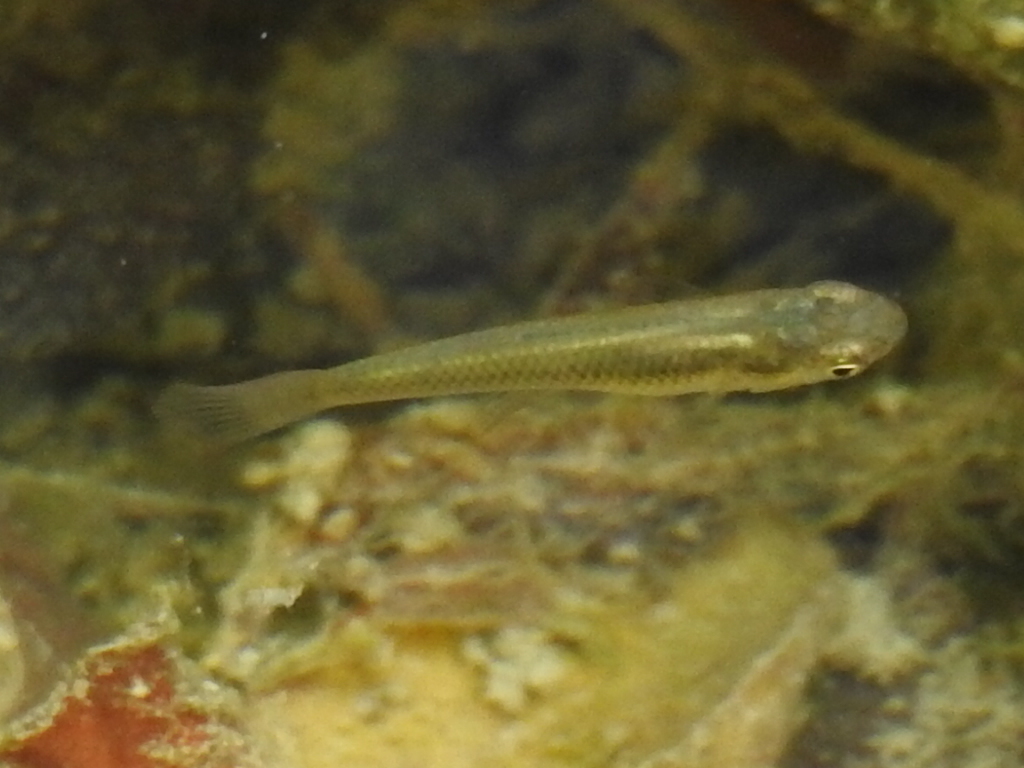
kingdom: Animalia
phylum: Chordata
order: Cyprinodontiformes
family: Poeciliidae
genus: Gambusia
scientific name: Gambusia affinis
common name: Mosquitofish
